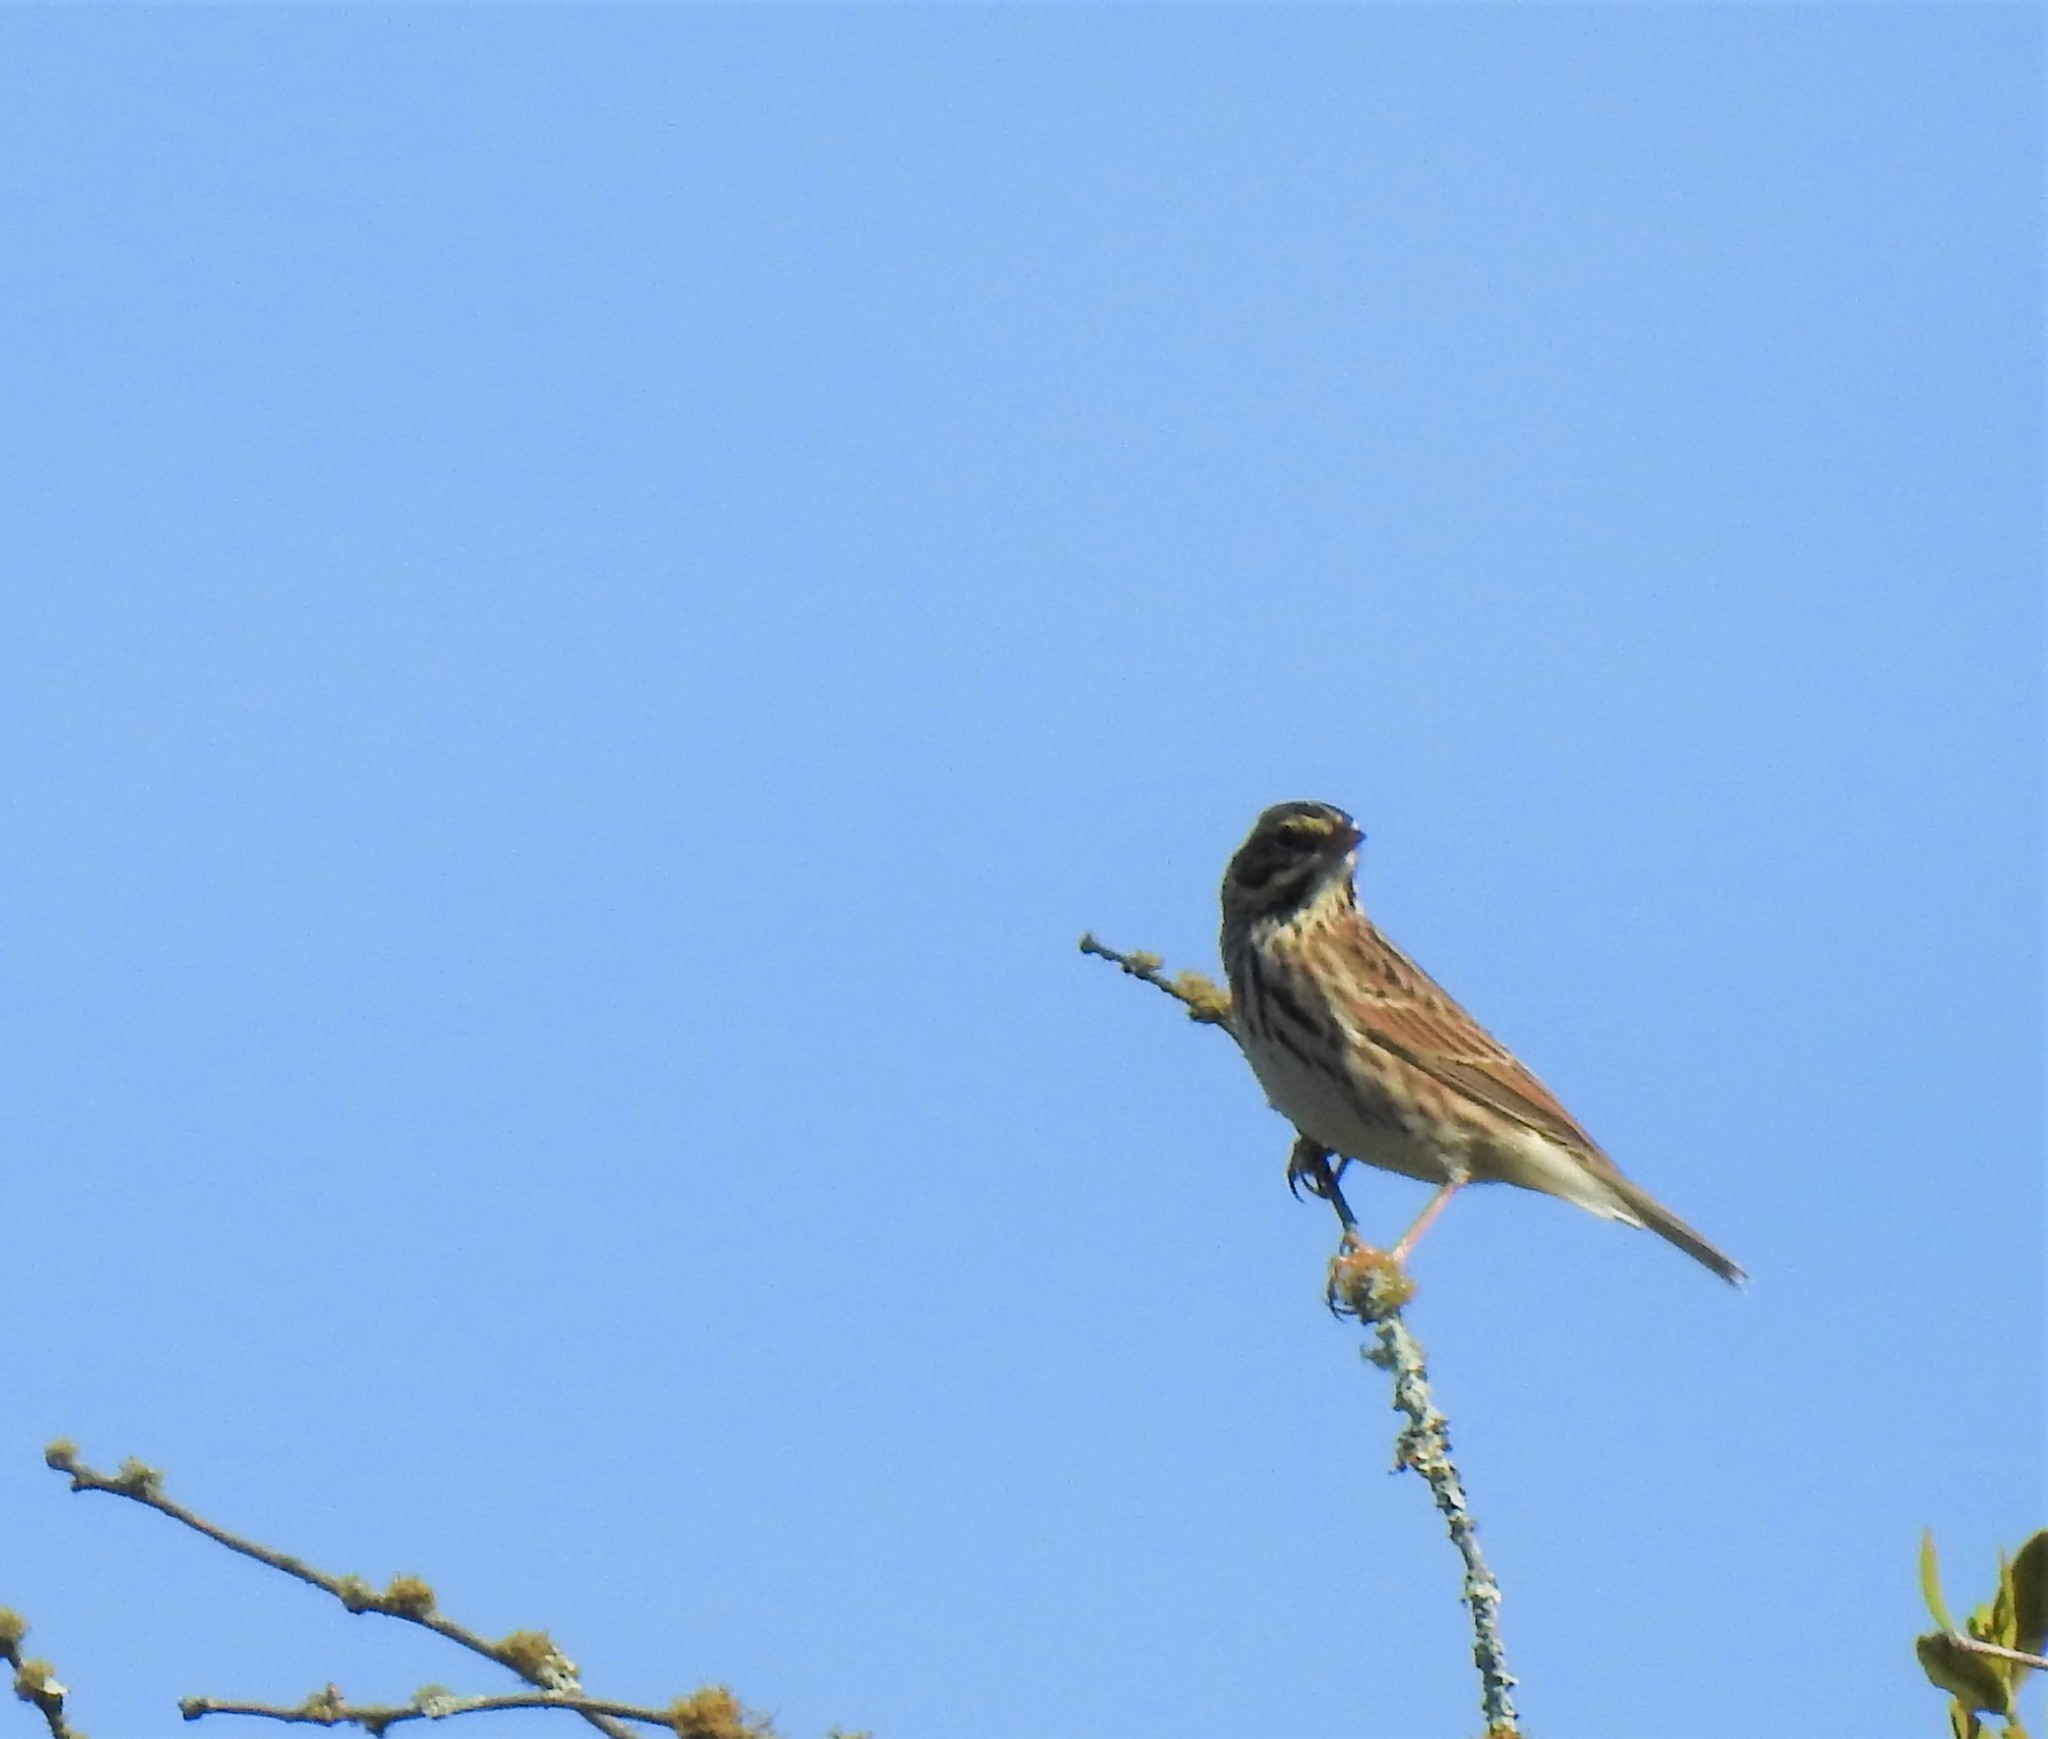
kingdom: Animalia
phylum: Chordata
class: Aves
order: Passeriformes
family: Passerellidae
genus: Passerculus
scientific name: Passerculus sandwichensis
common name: Savannah sparrow
